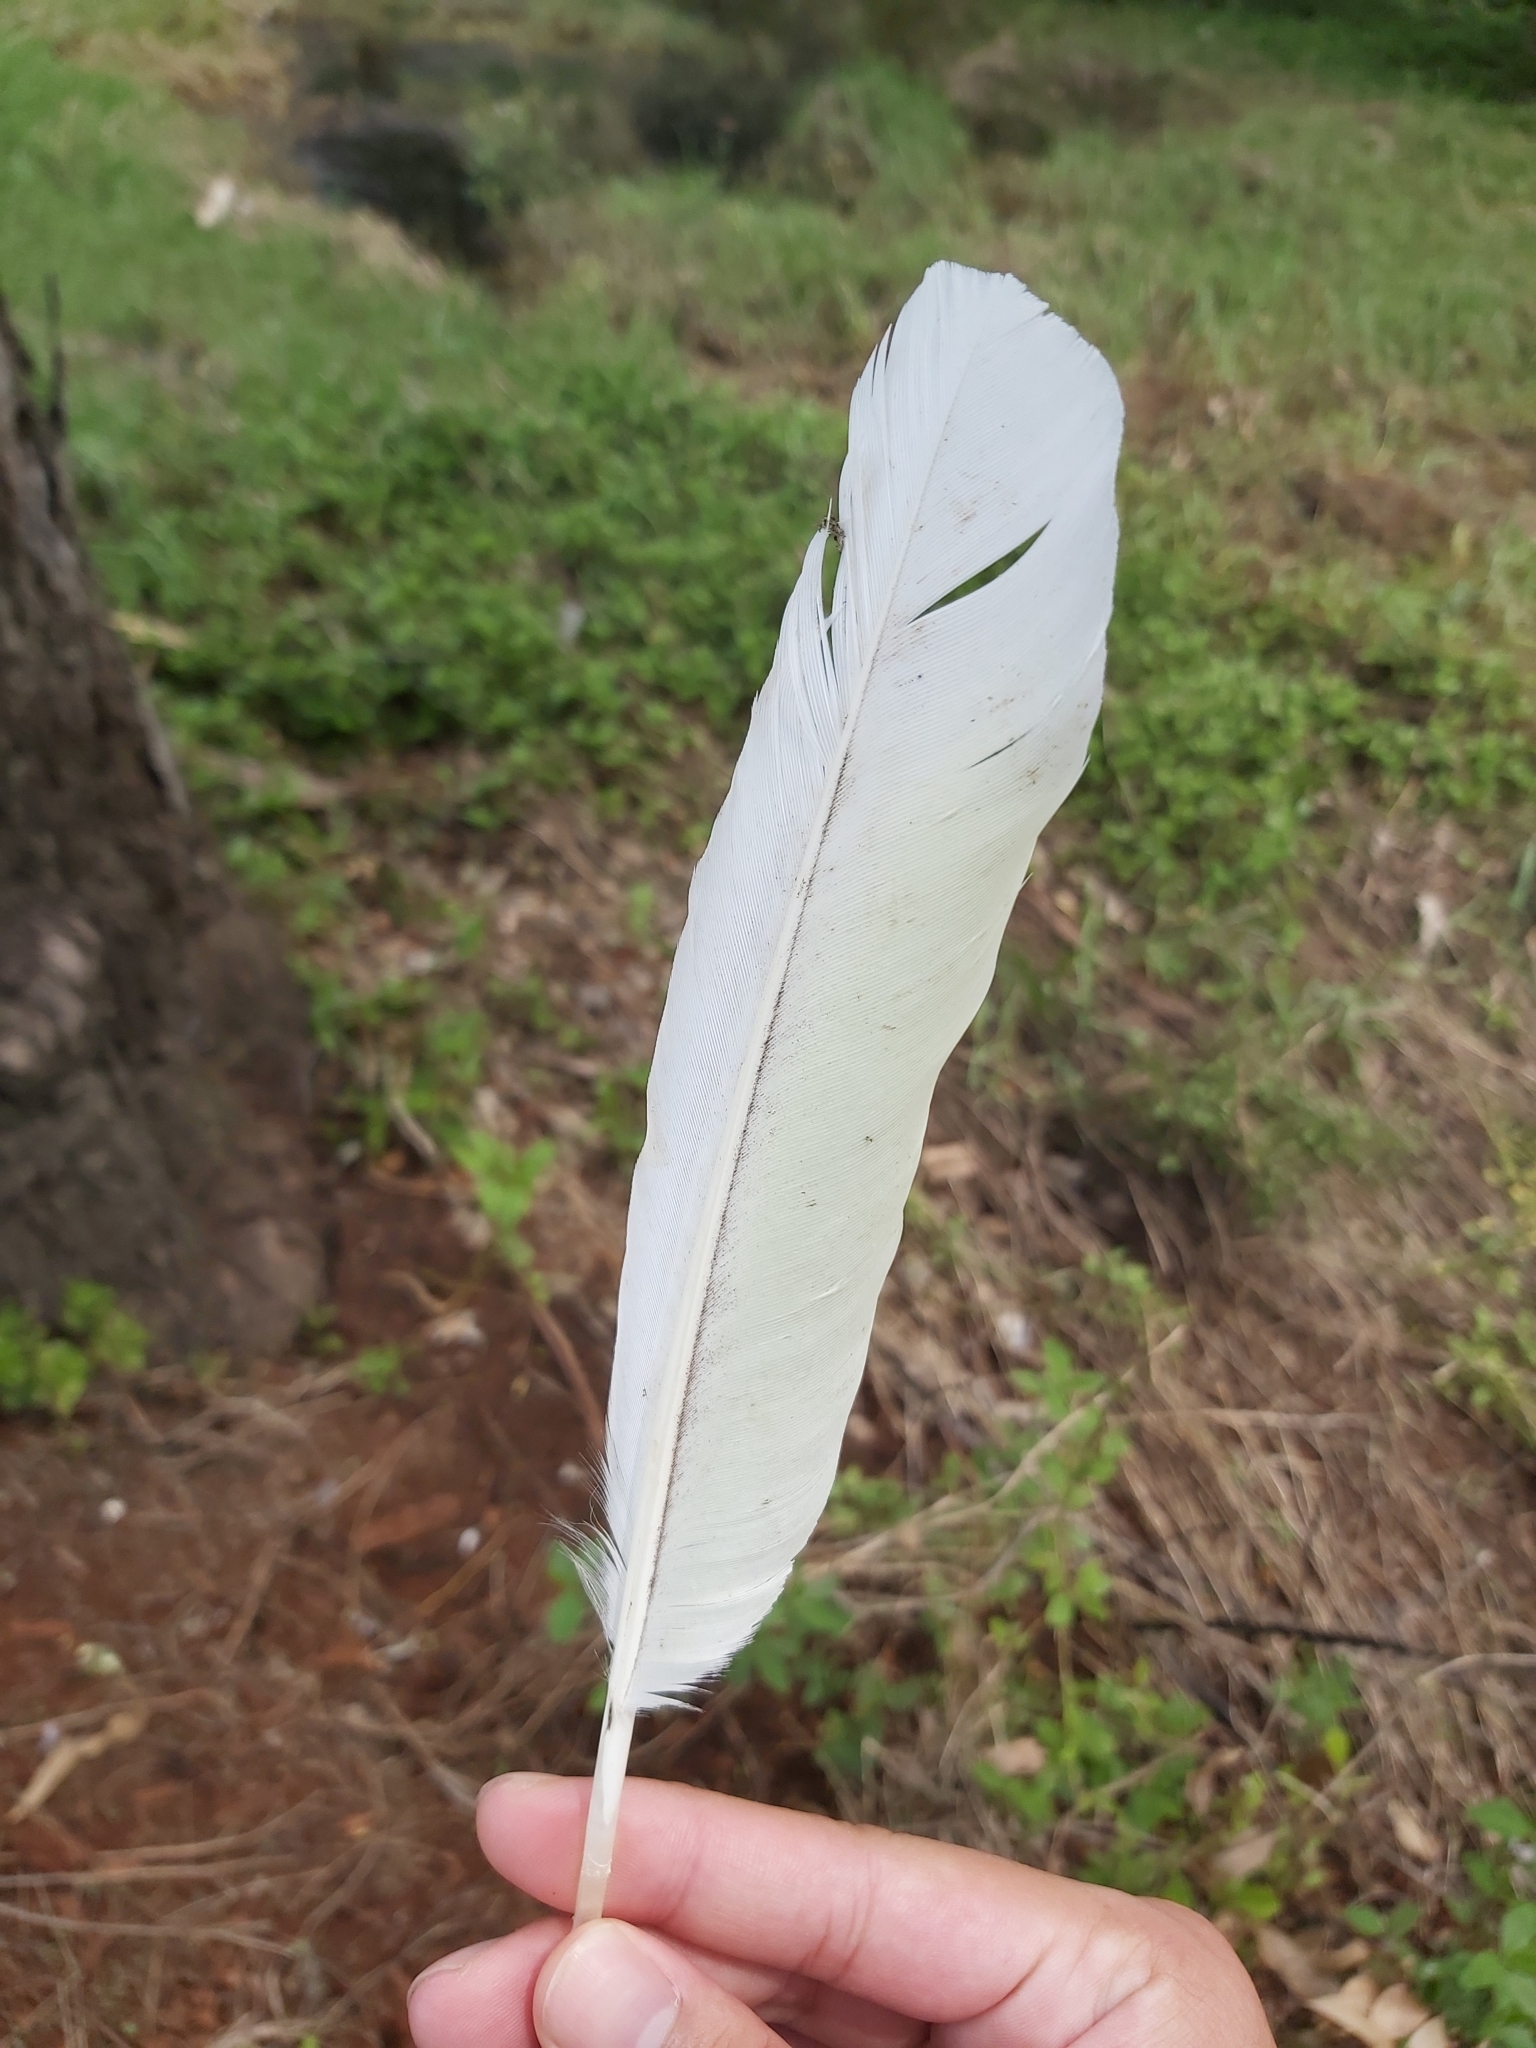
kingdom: Animalia
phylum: Chordata
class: Aves
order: Psittaciformes
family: Psittacidae
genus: Cacatua
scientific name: Cacatua galerita
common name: Sulphur-crested cockatoo
